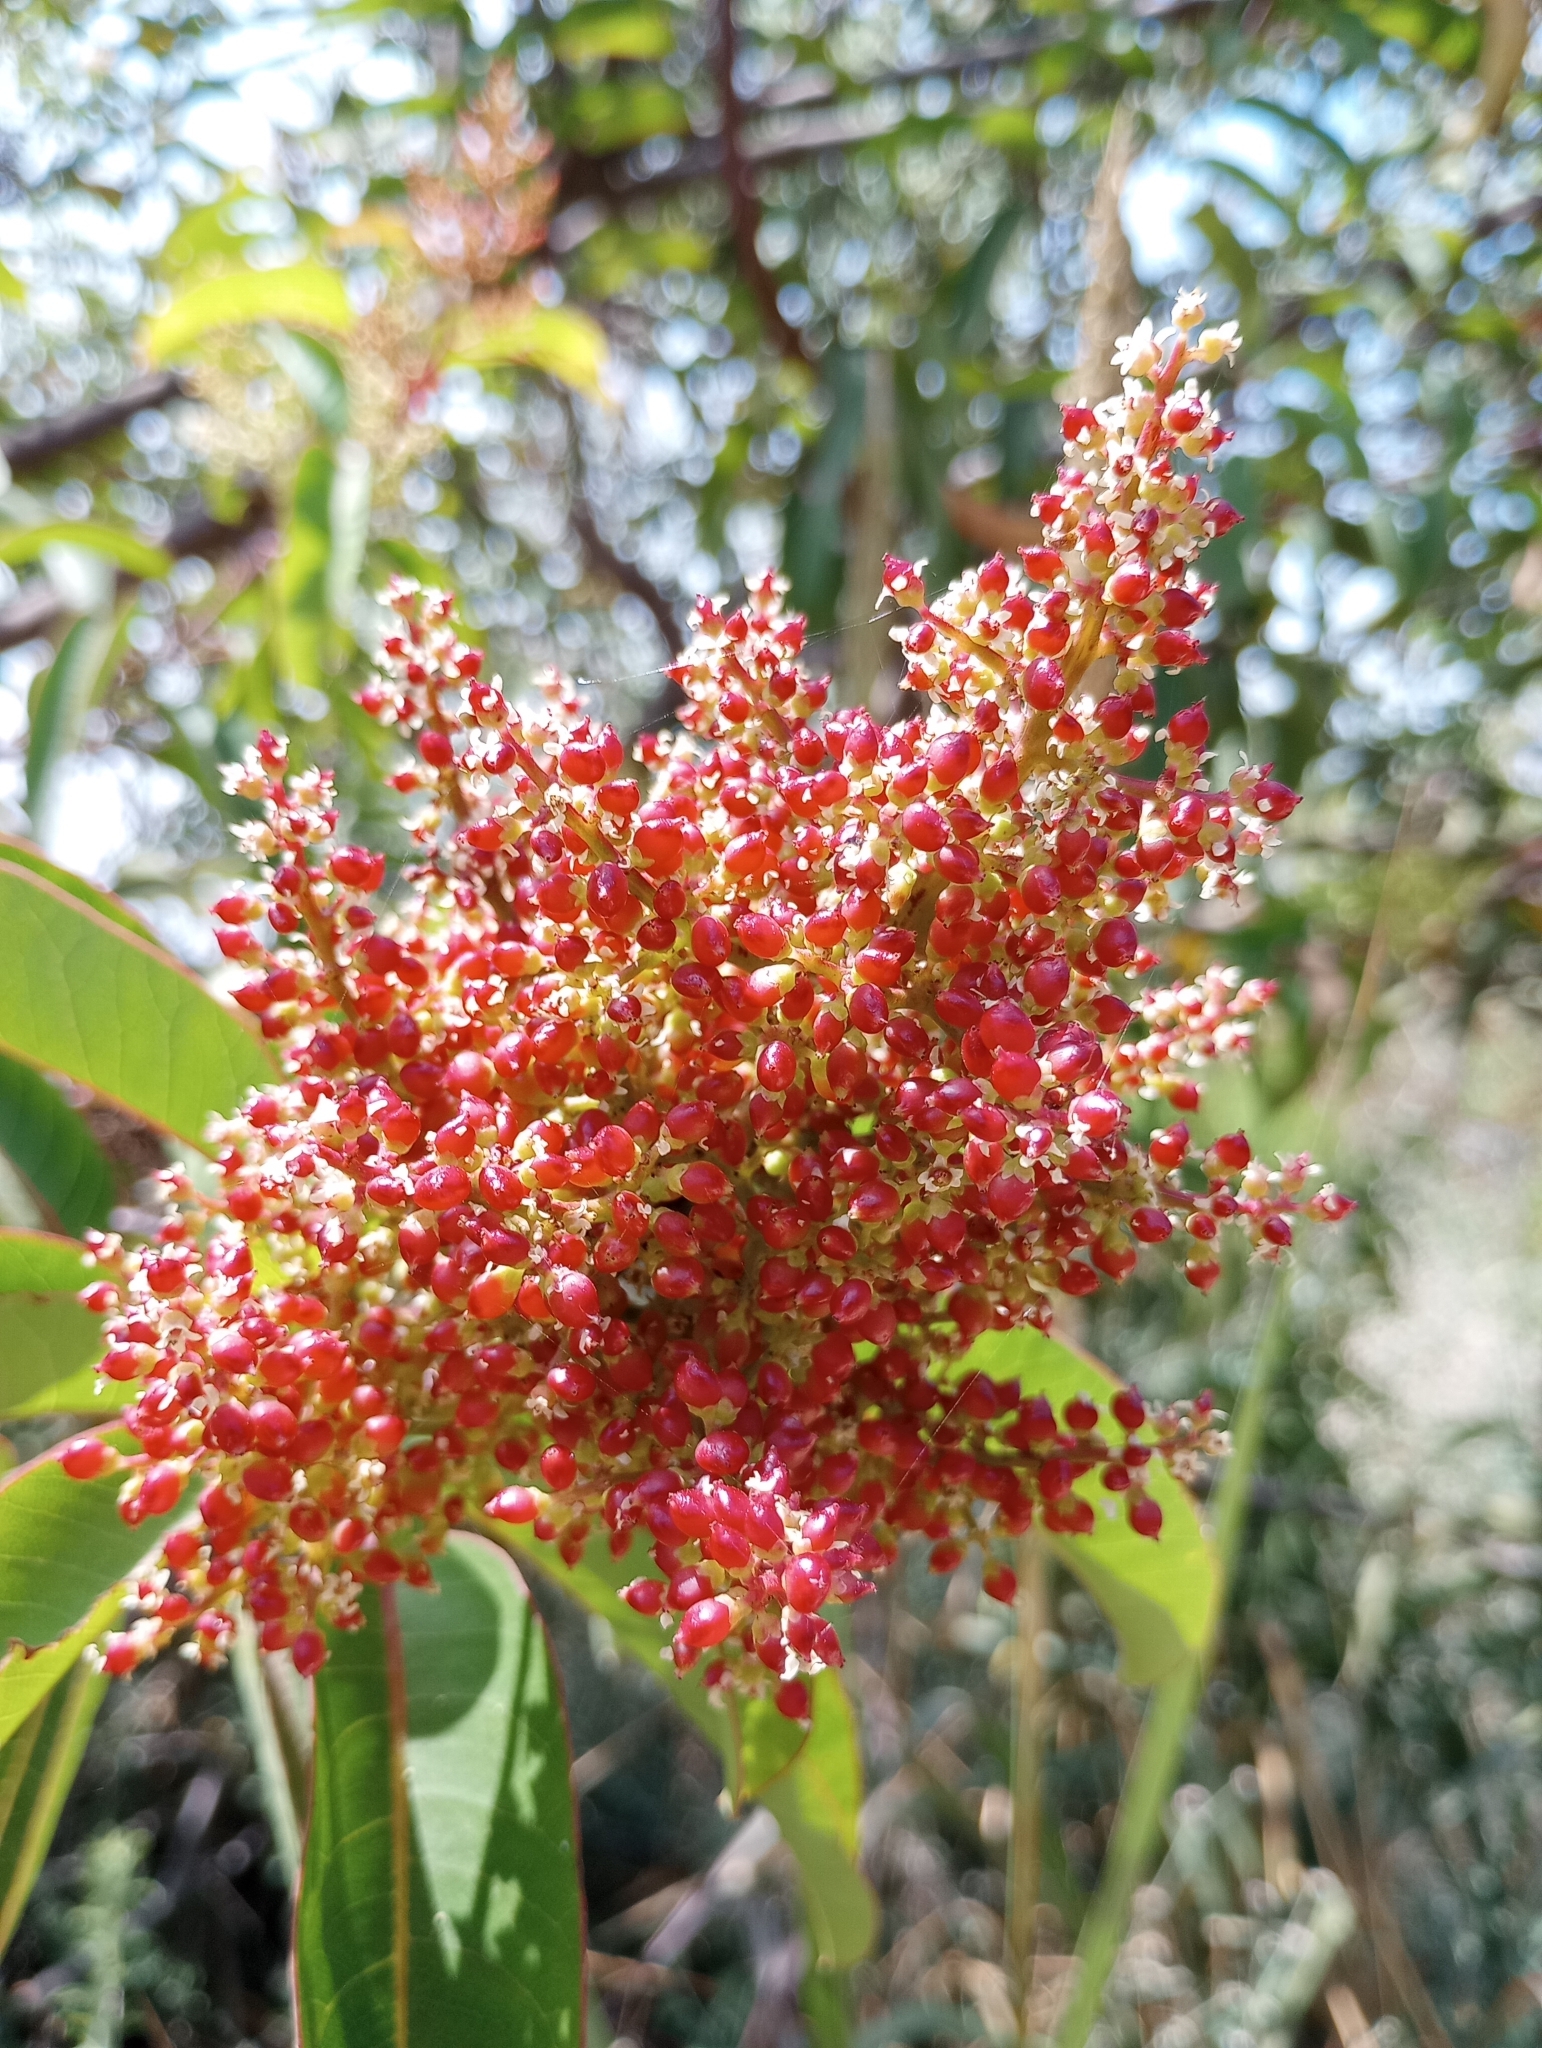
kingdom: Plantae
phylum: Tracheophyta
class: Magnoliopsida
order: Sapindales
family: Anacardiaceae
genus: Malosma
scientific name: Malosma laurina
